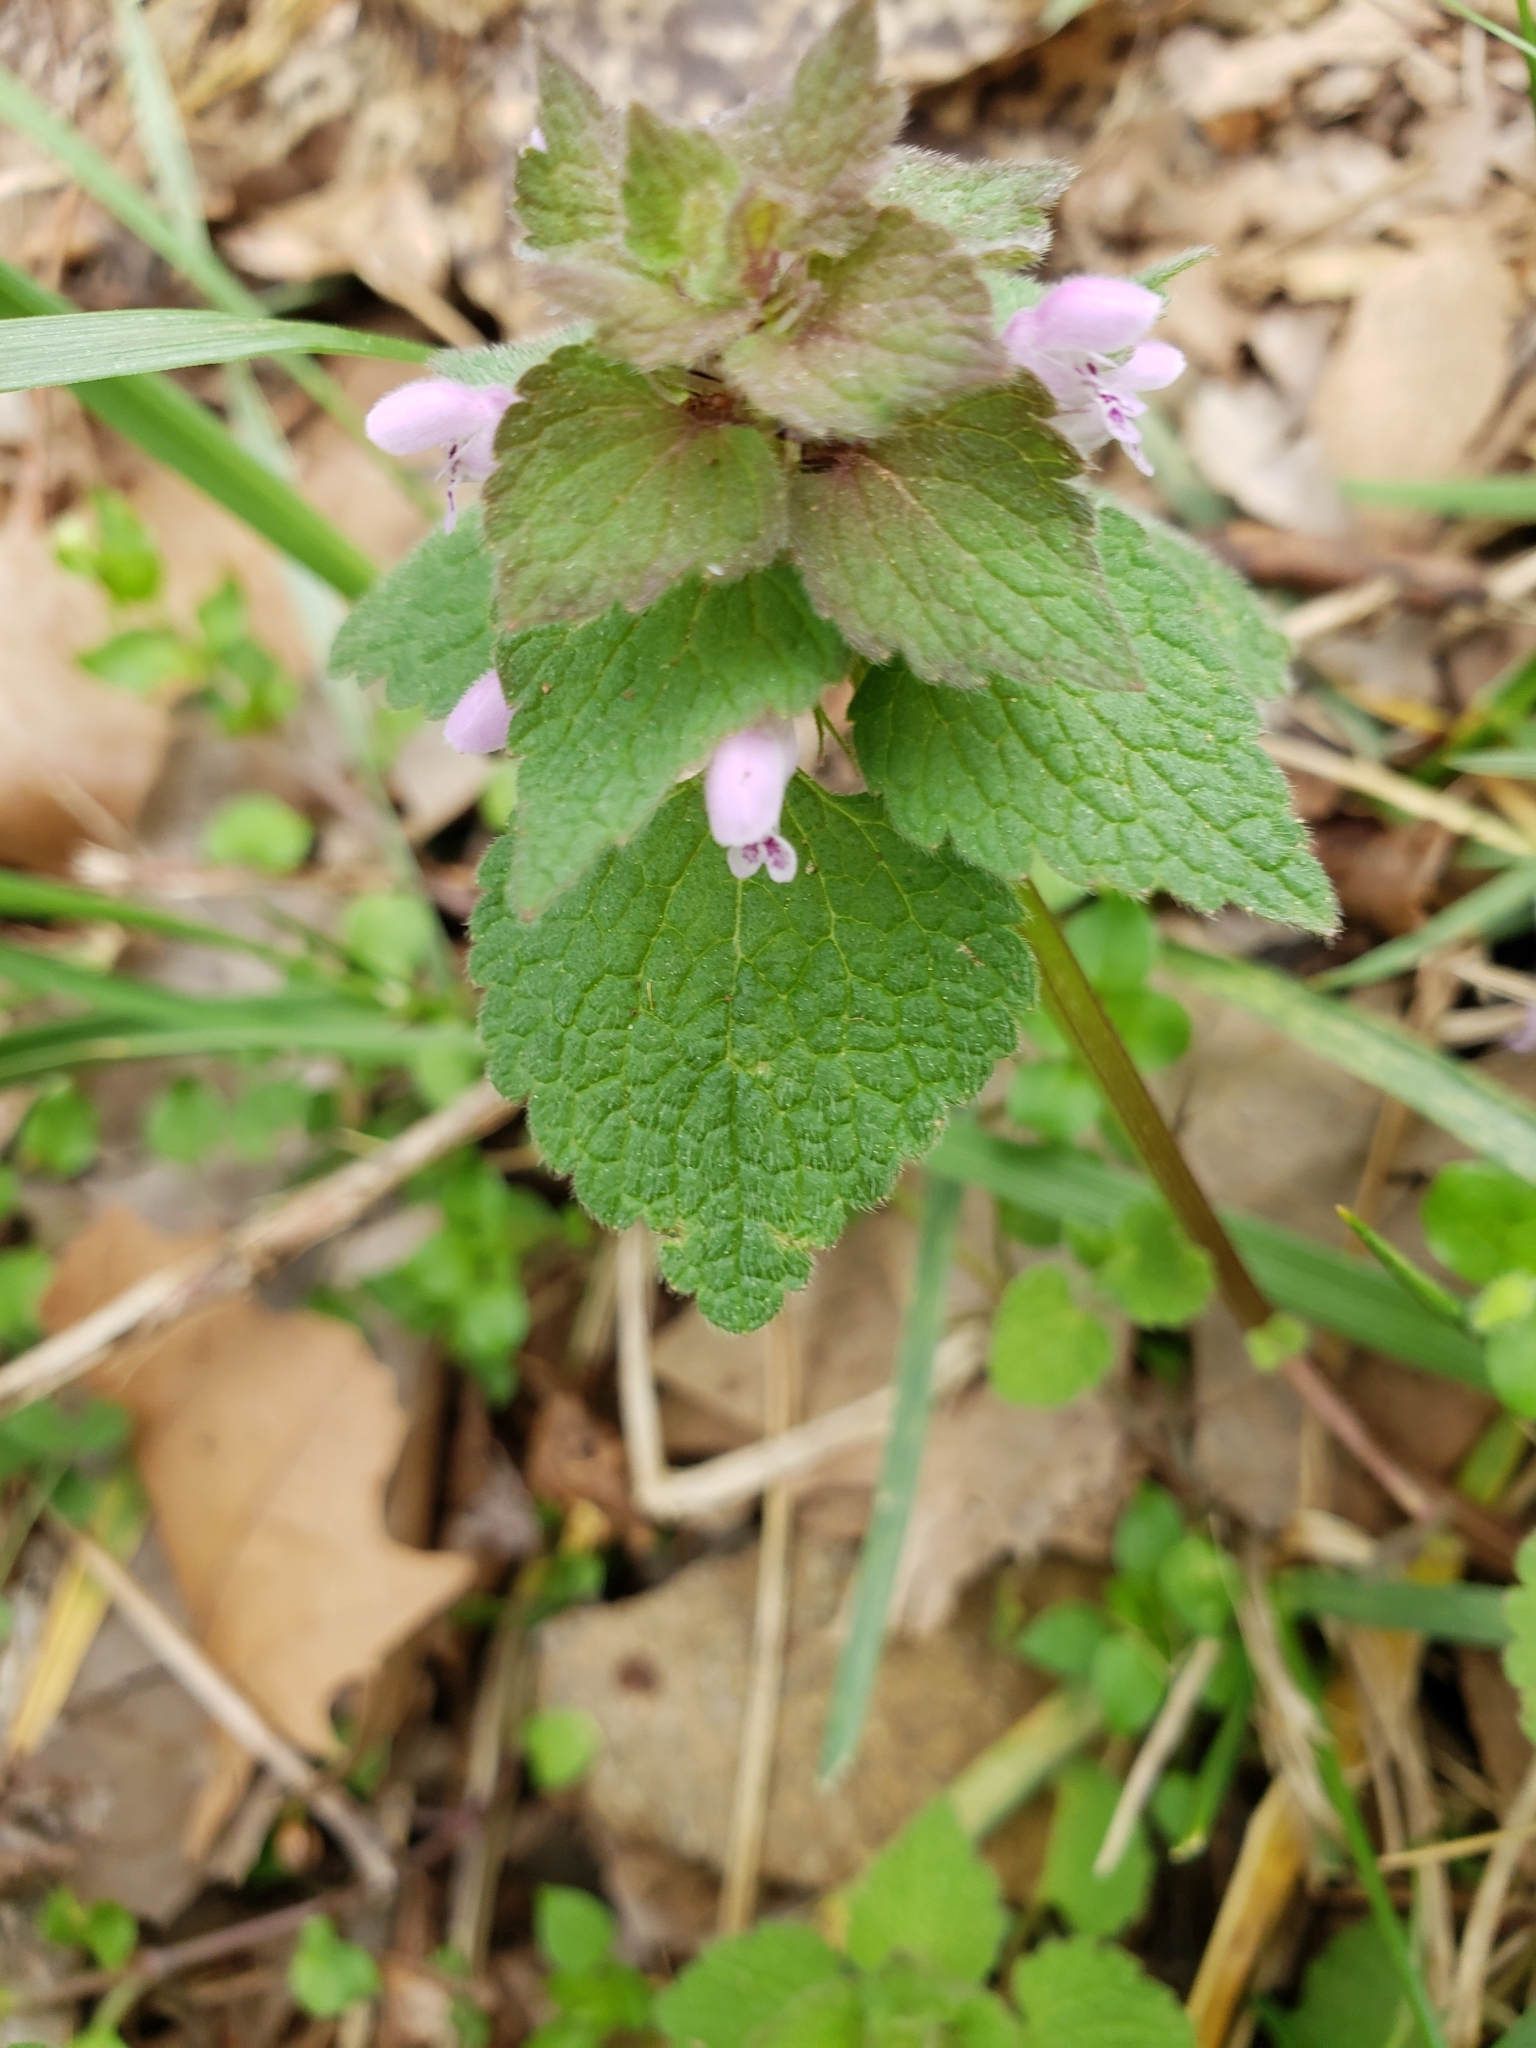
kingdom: Plantae
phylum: Tracheophyta
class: Magnoliopsida
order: Lamiales
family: Lamiaceae
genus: Lamium
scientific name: Lamium purpureum
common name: Red dead-nettle
